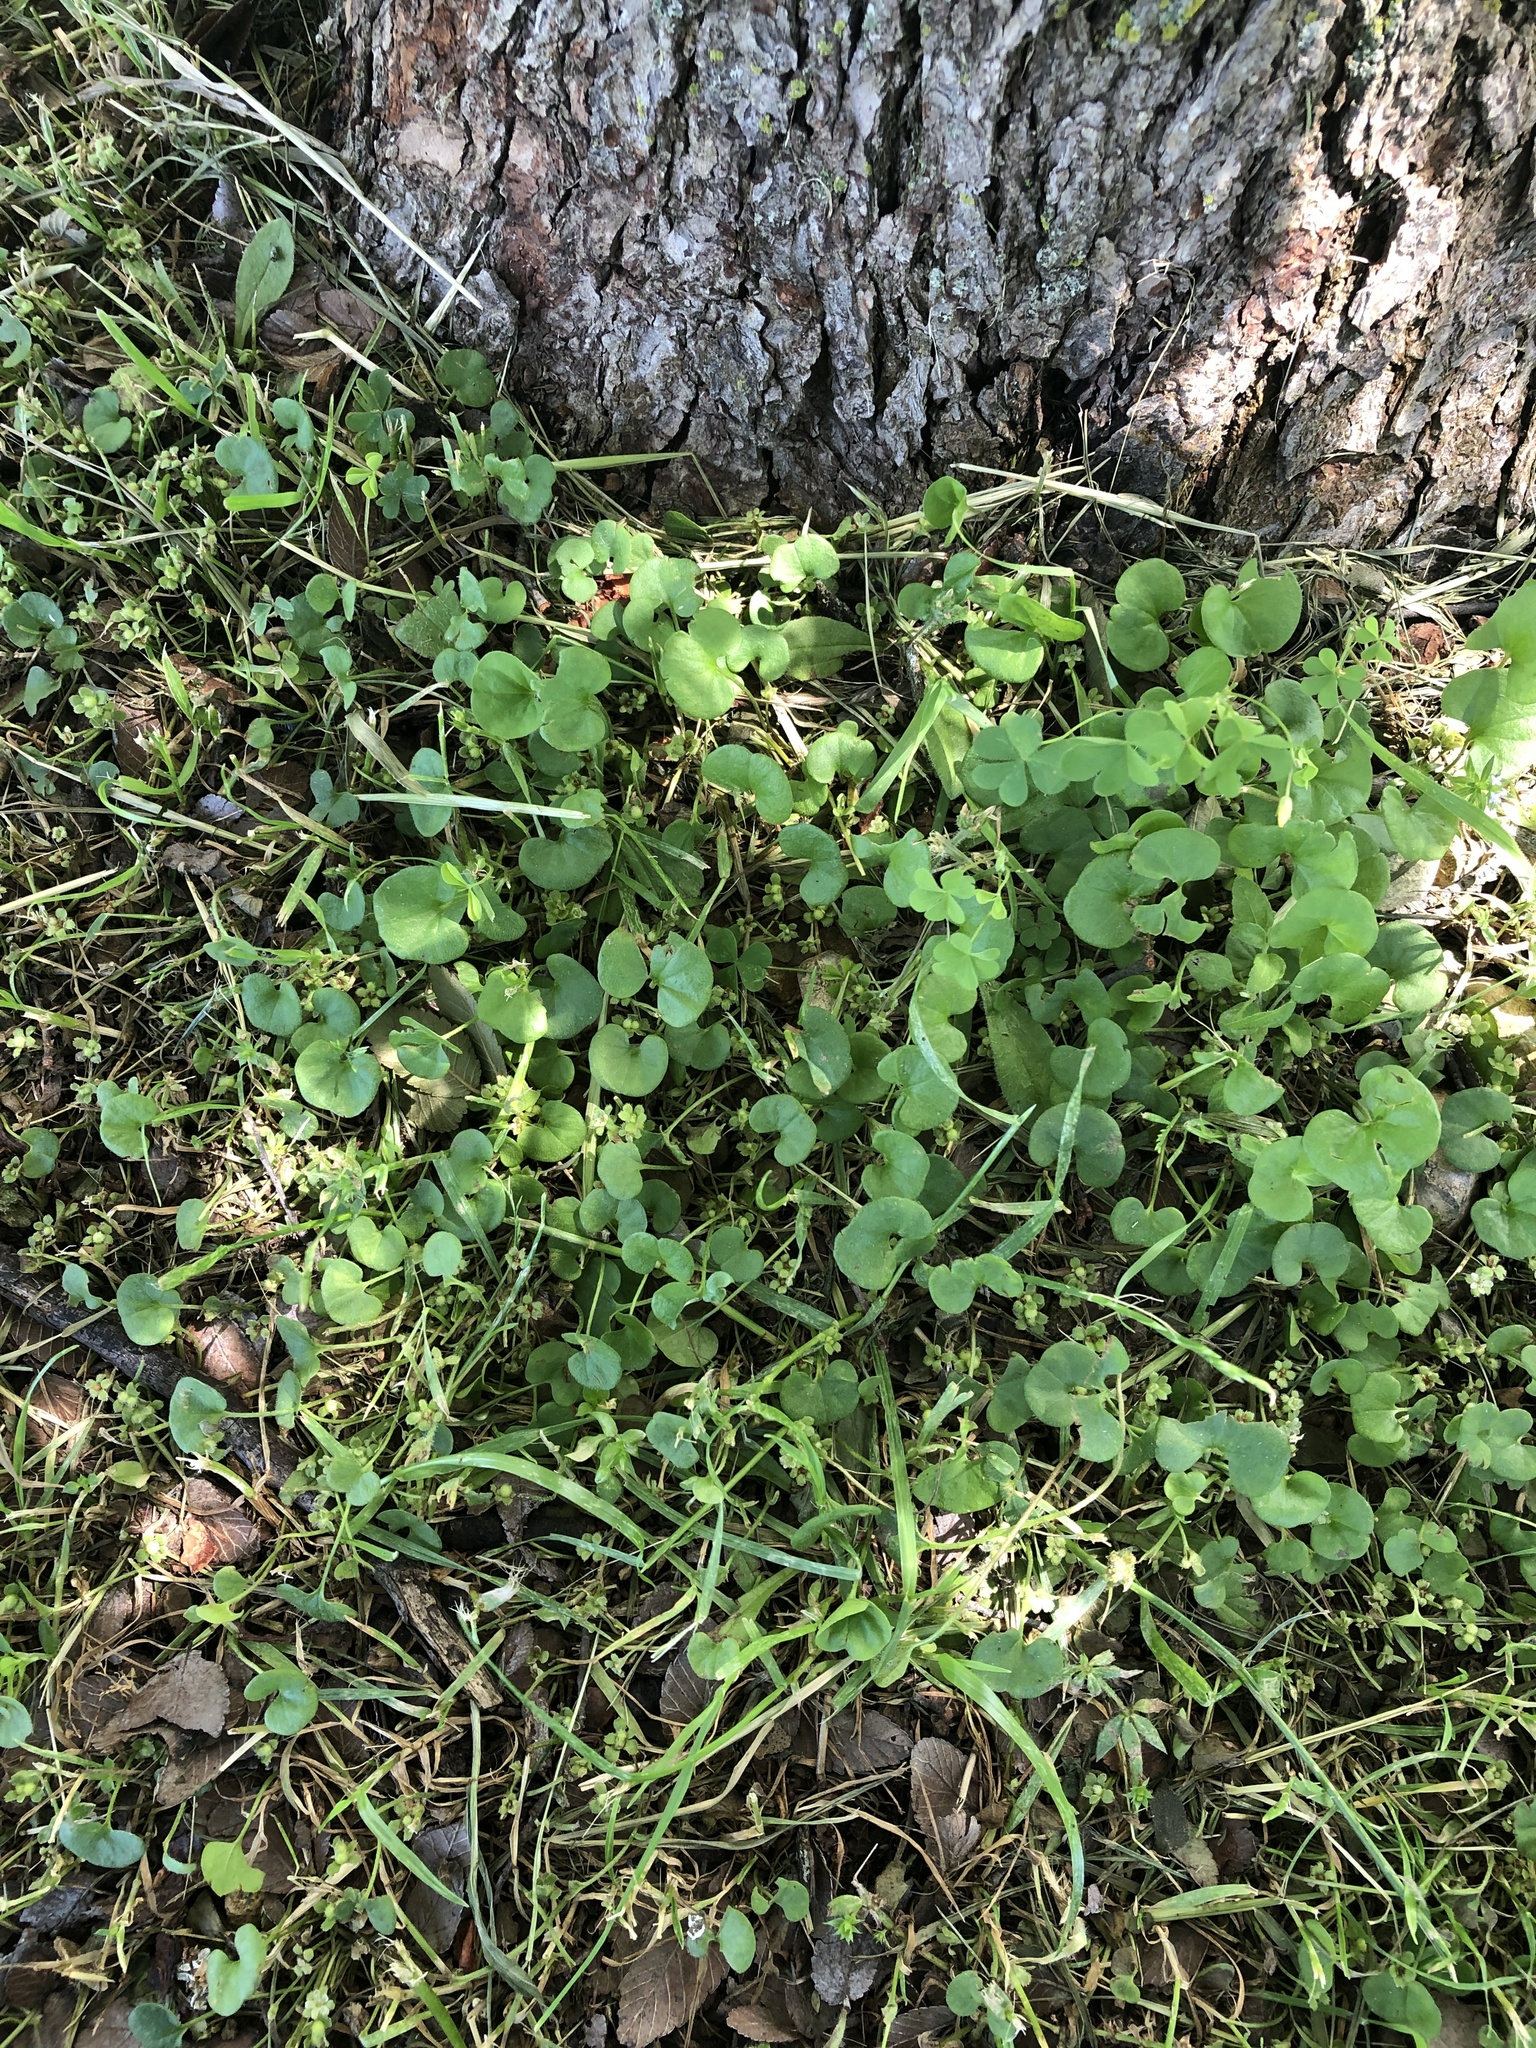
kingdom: Plantae
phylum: Tracheophyta
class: Magnoliopsida
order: Solanales
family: Convolvulaceae
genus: Dichondra
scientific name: Dichondra carolinensis
